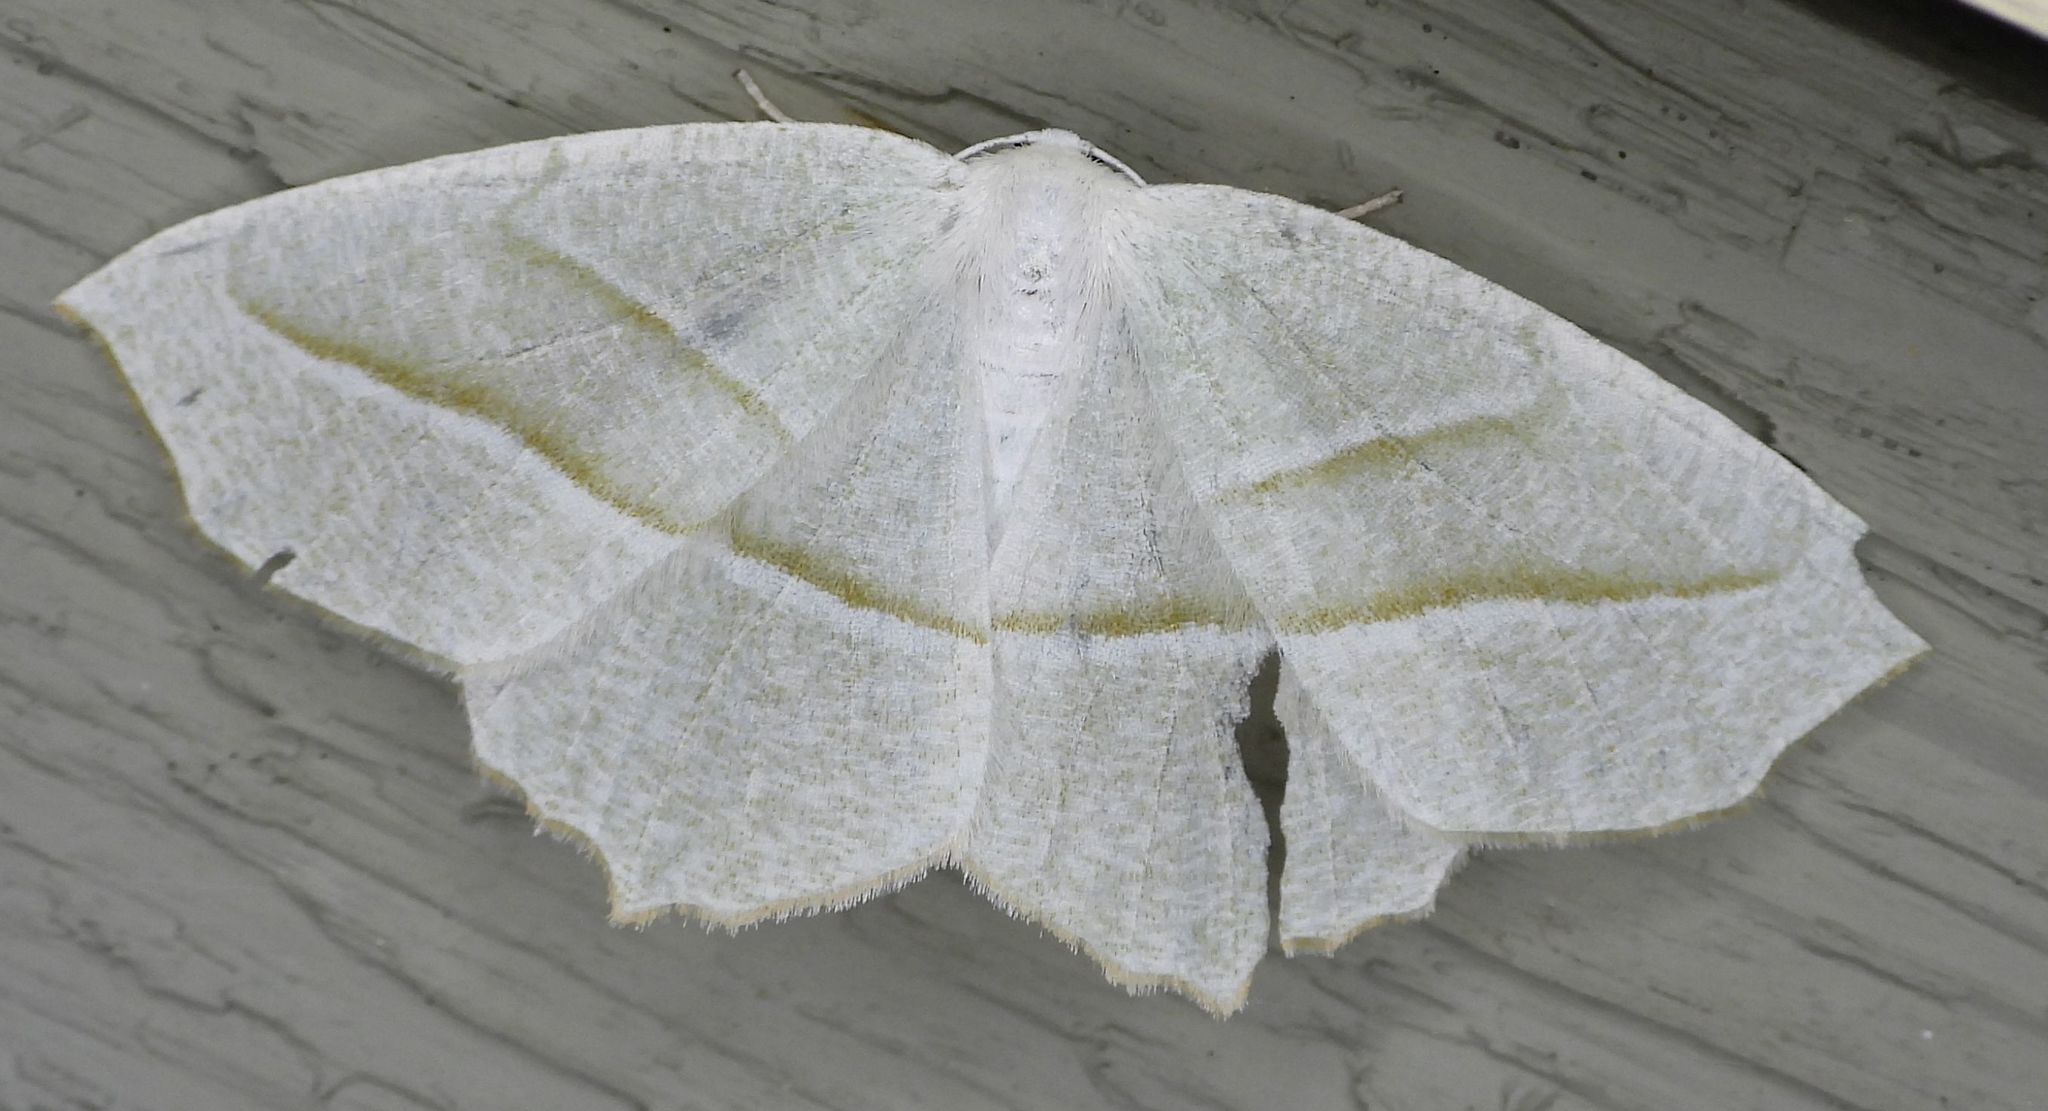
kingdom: Animalia
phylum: Arthropoda
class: Insecta
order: Lepidoptera
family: Geometridae
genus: Campaea
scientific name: Campaea perlata
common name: Fringed looper
